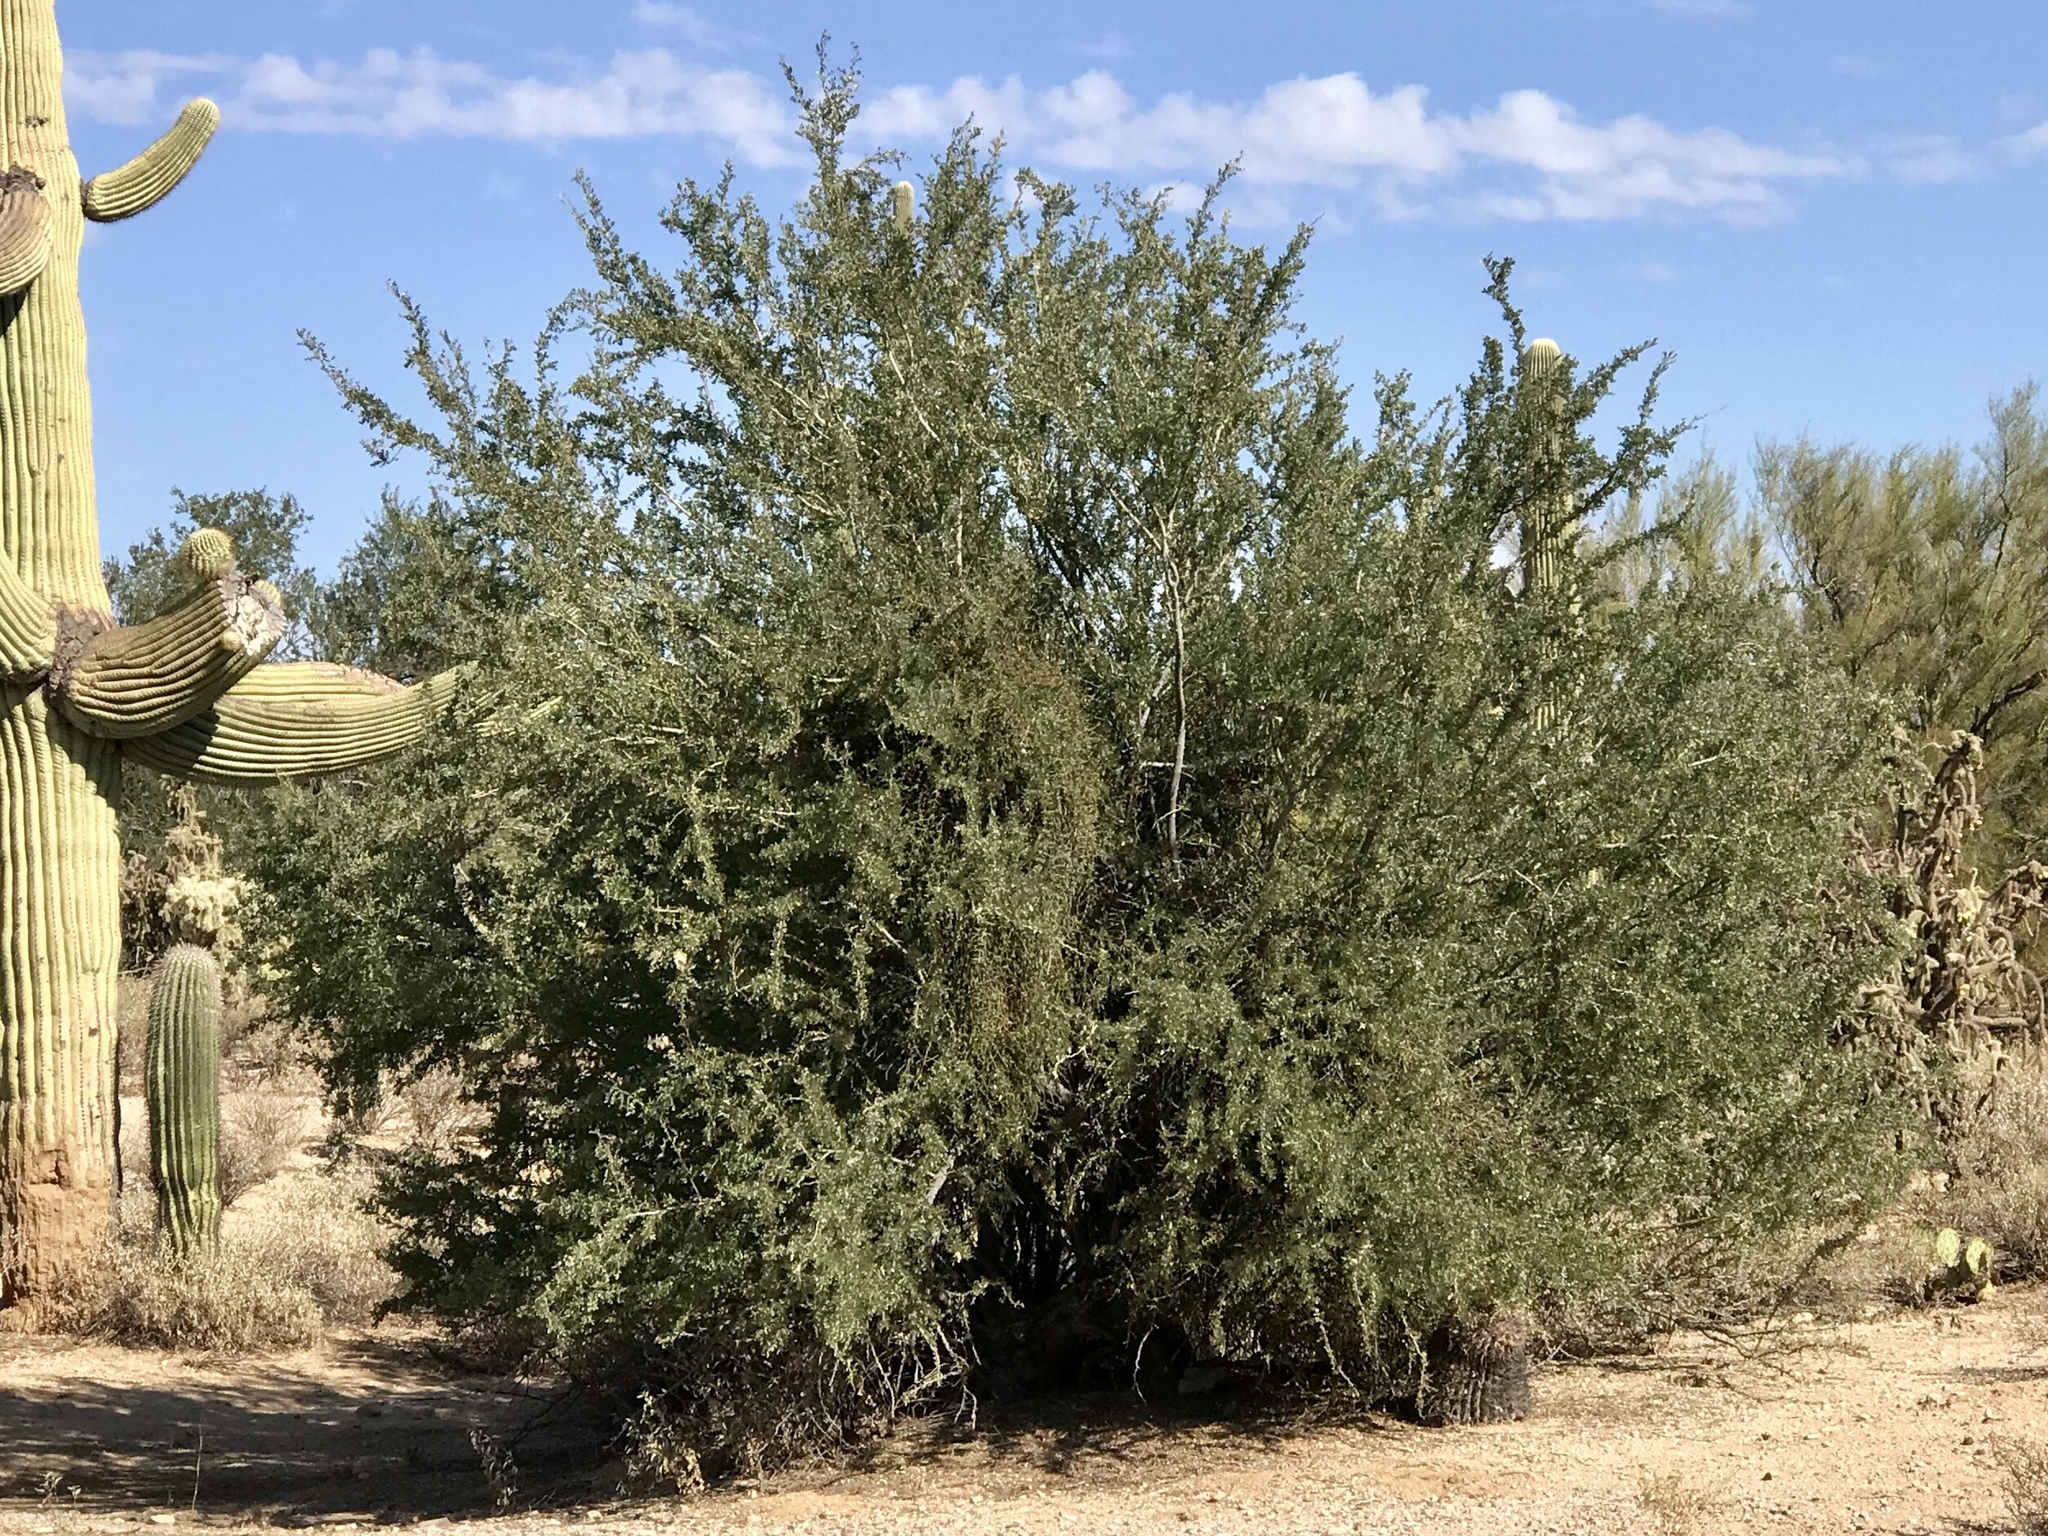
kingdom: Plantae
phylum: Tracheophyta
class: Magnoliopsida
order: Fabales
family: Fabaceae
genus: Olneya
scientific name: Olneya tesota
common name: Desert ironwood
